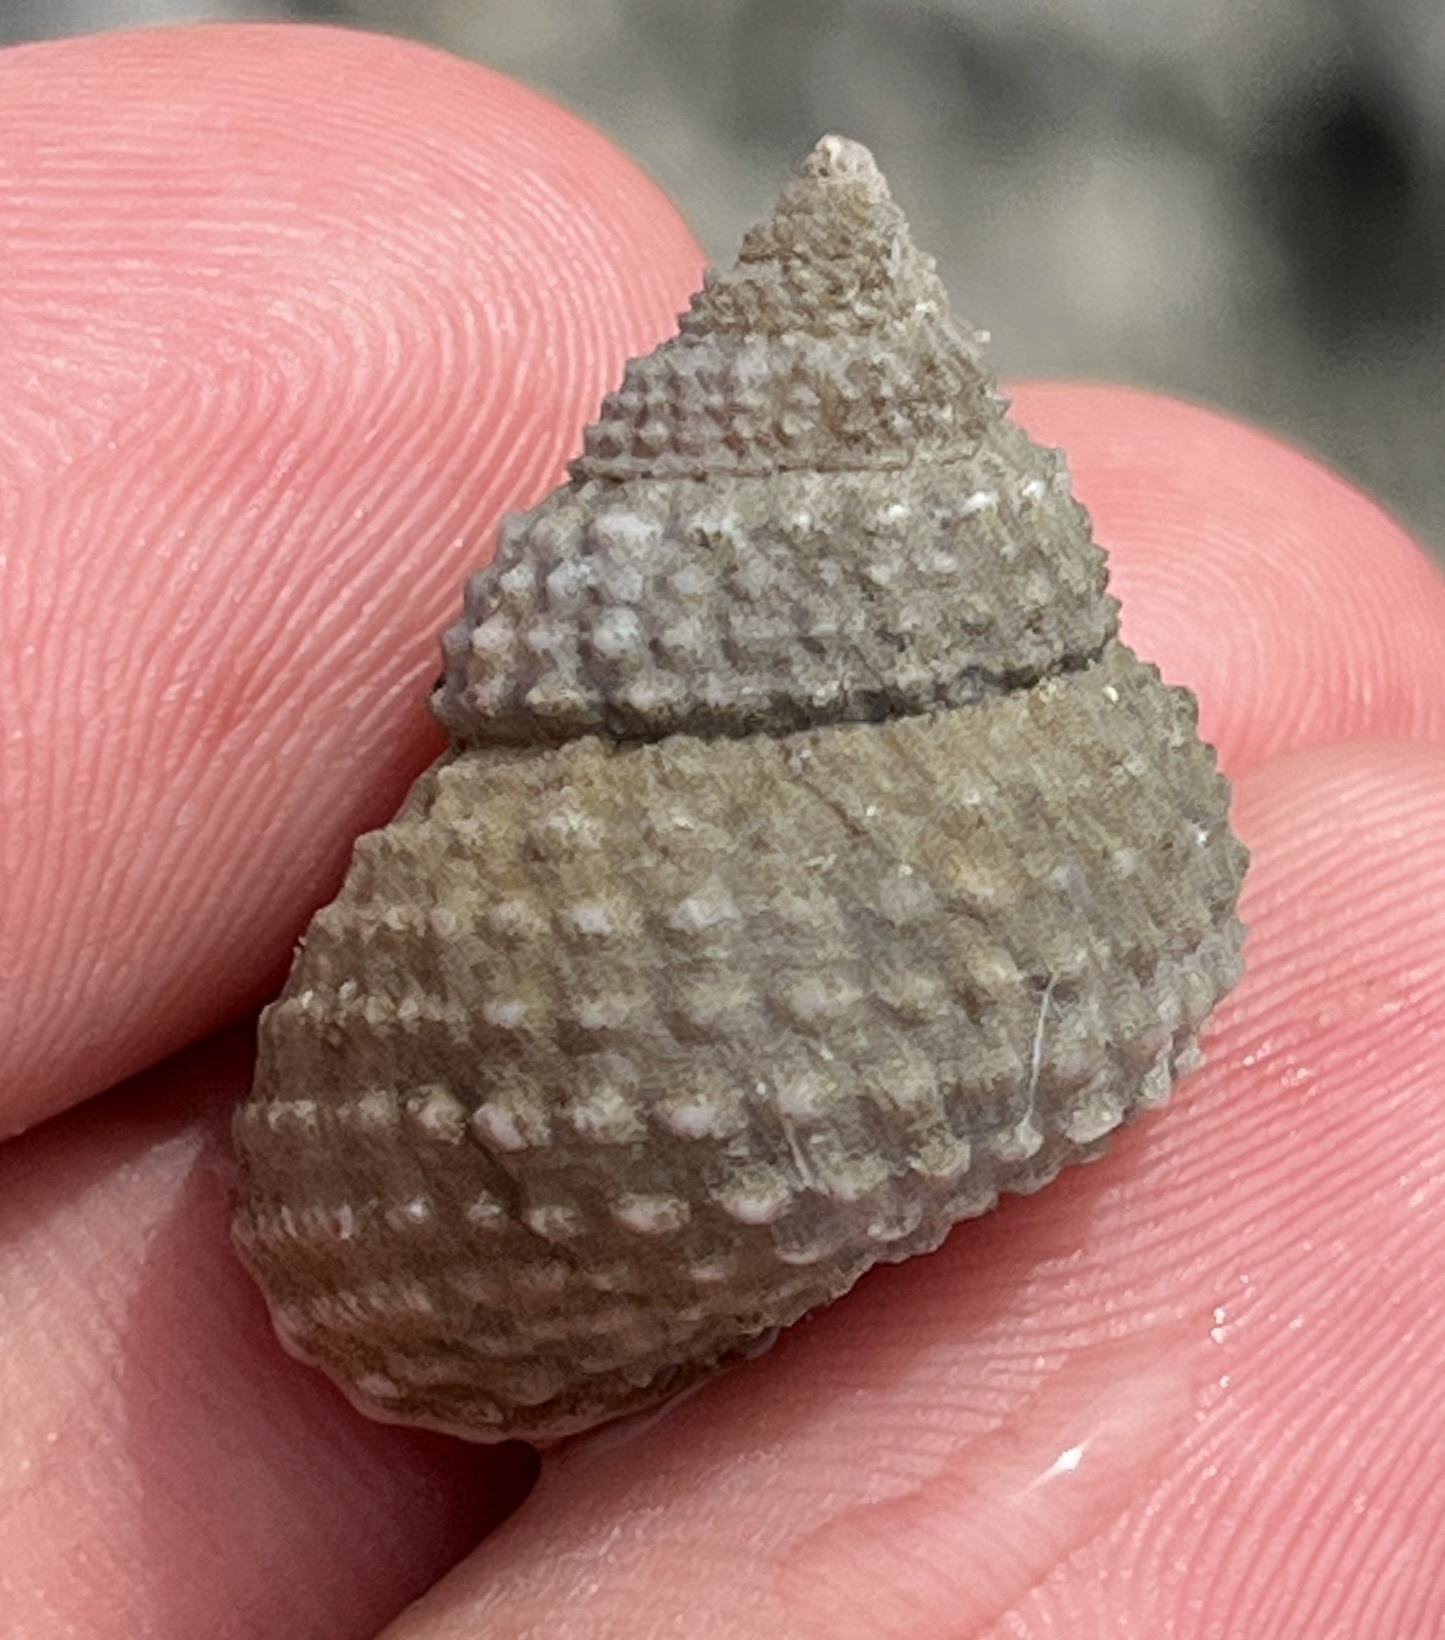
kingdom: Animalia
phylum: Mollusca
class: Gastropoda
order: Littorinimorpha
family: Littorinidae
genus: Cenchritis
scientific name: Cenchritis muricatus
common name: Beaded periwinkle
